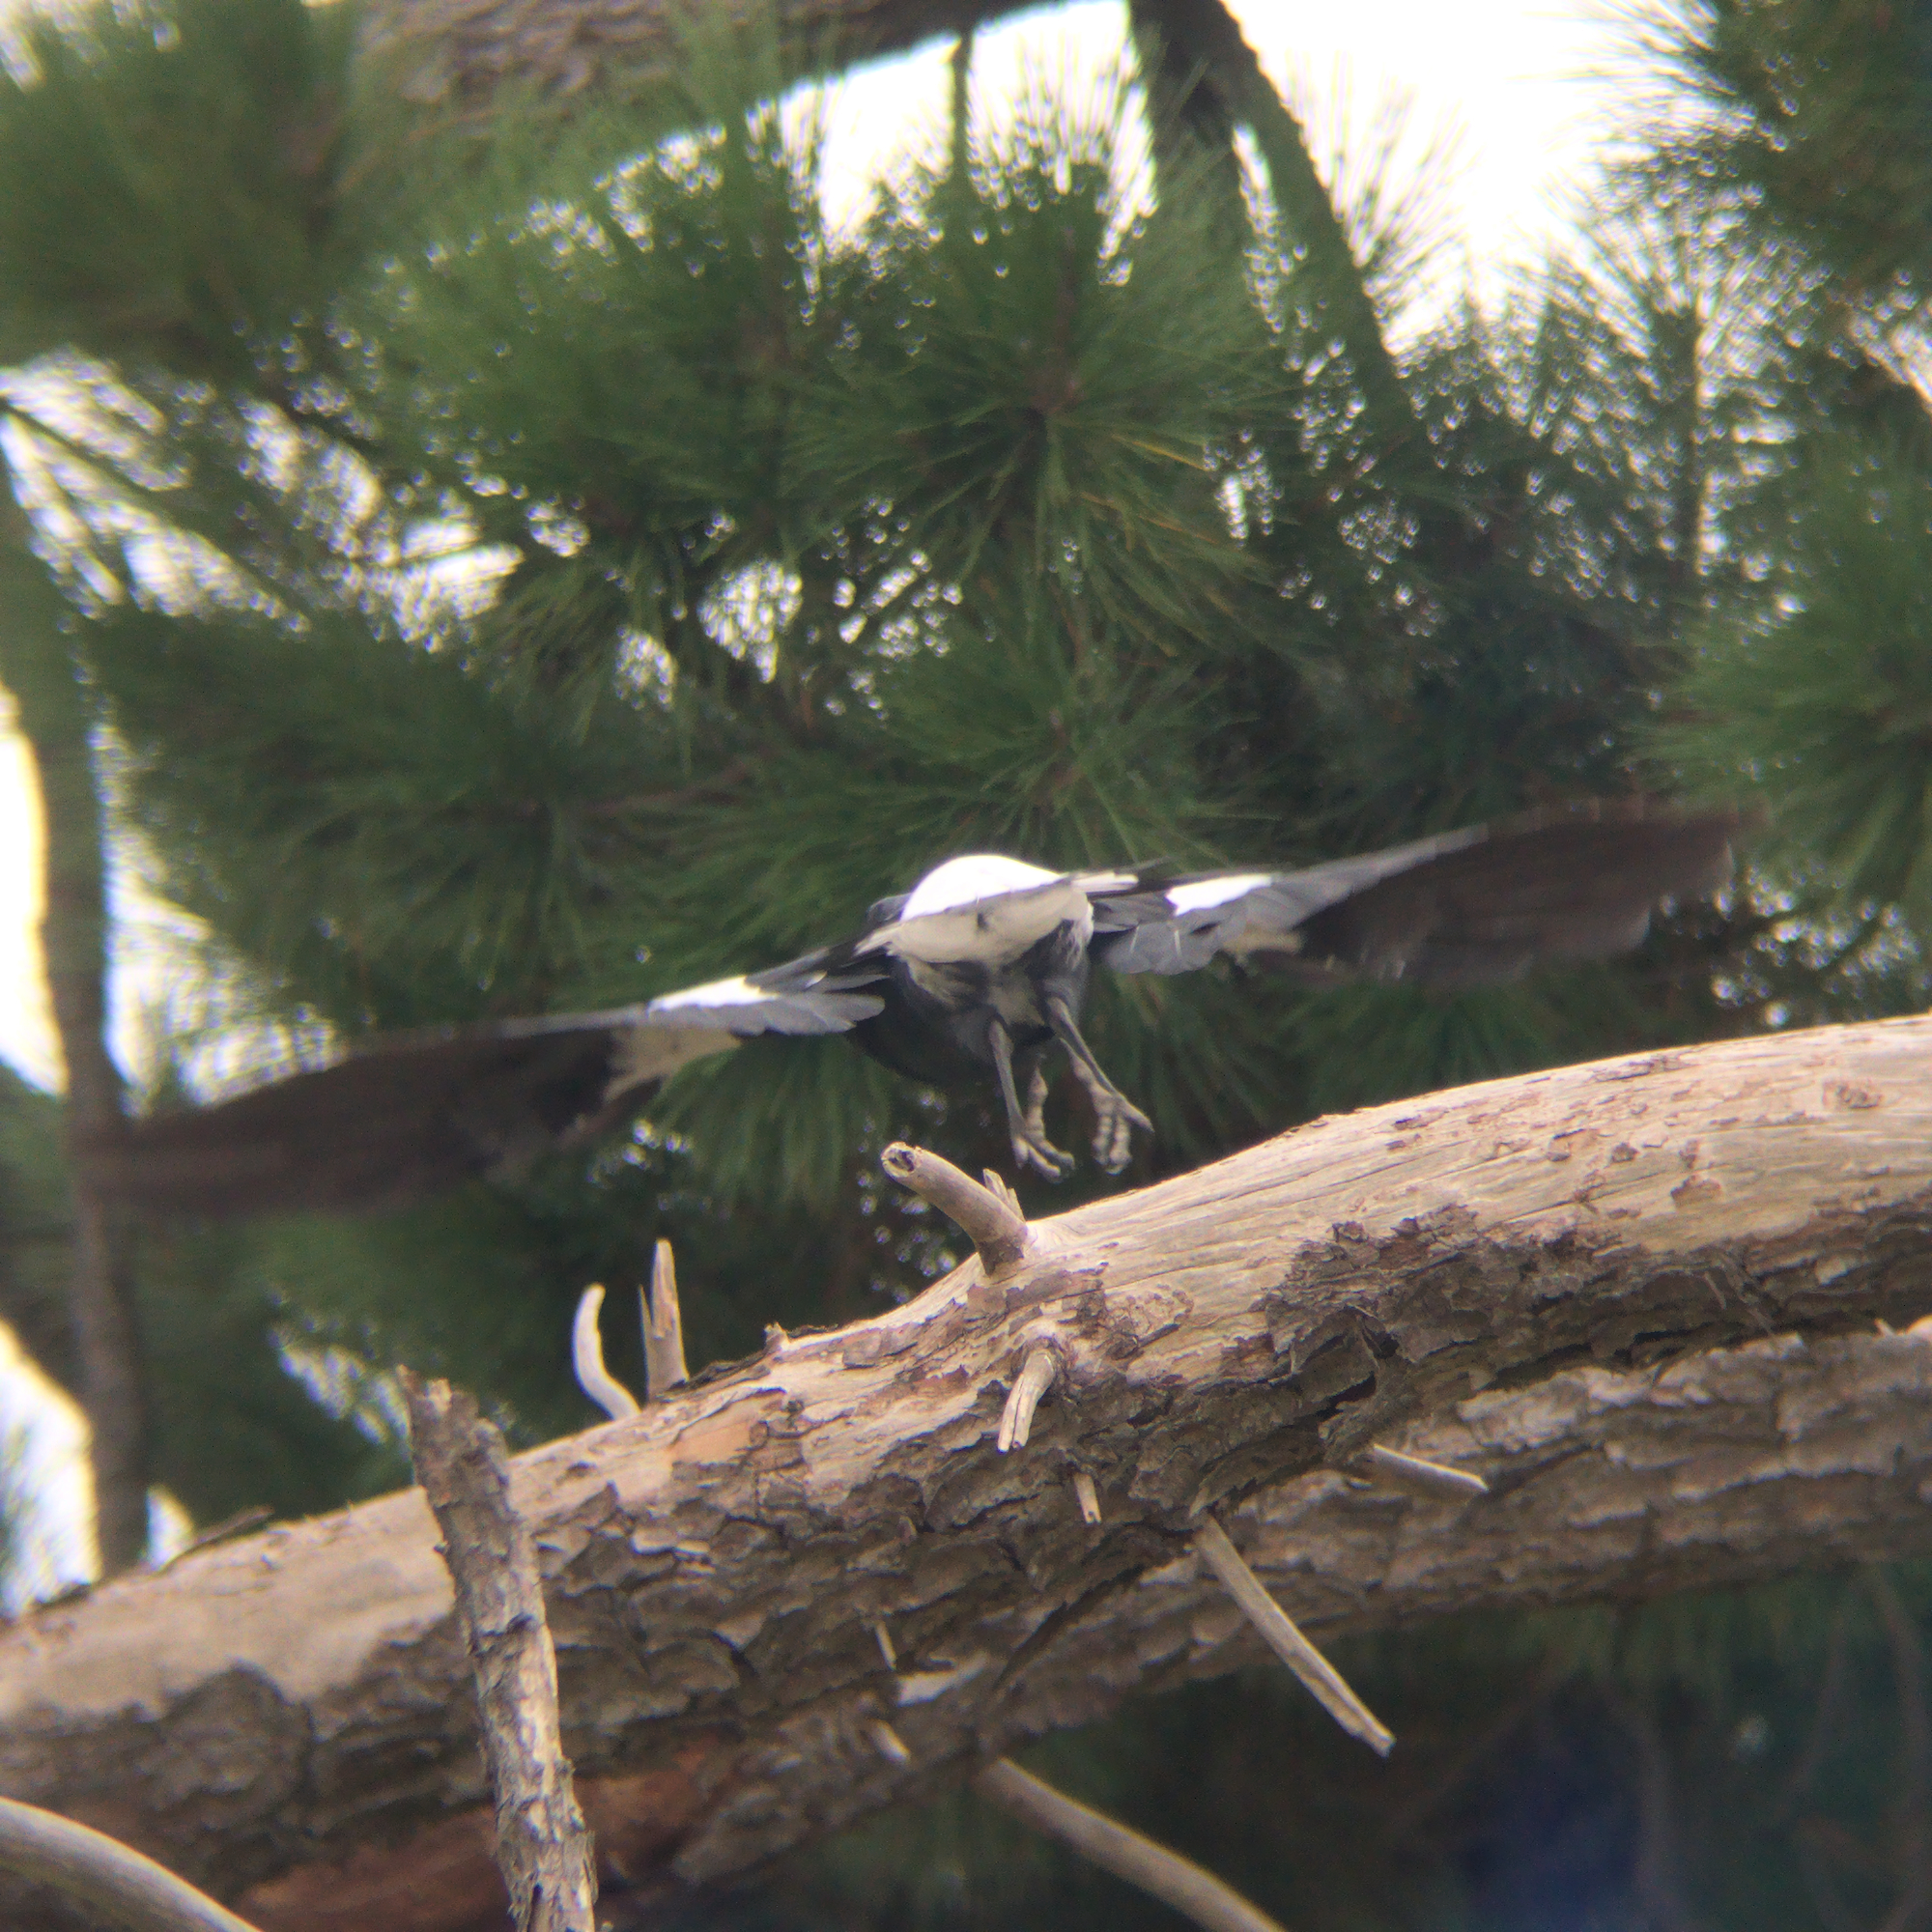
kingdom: Animalia
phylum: Chordata
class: Aves
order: Passeriformes
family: Cracticidae
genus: Gymnorhina
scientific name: Gymnorhina tibicen
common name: Australian magpie
